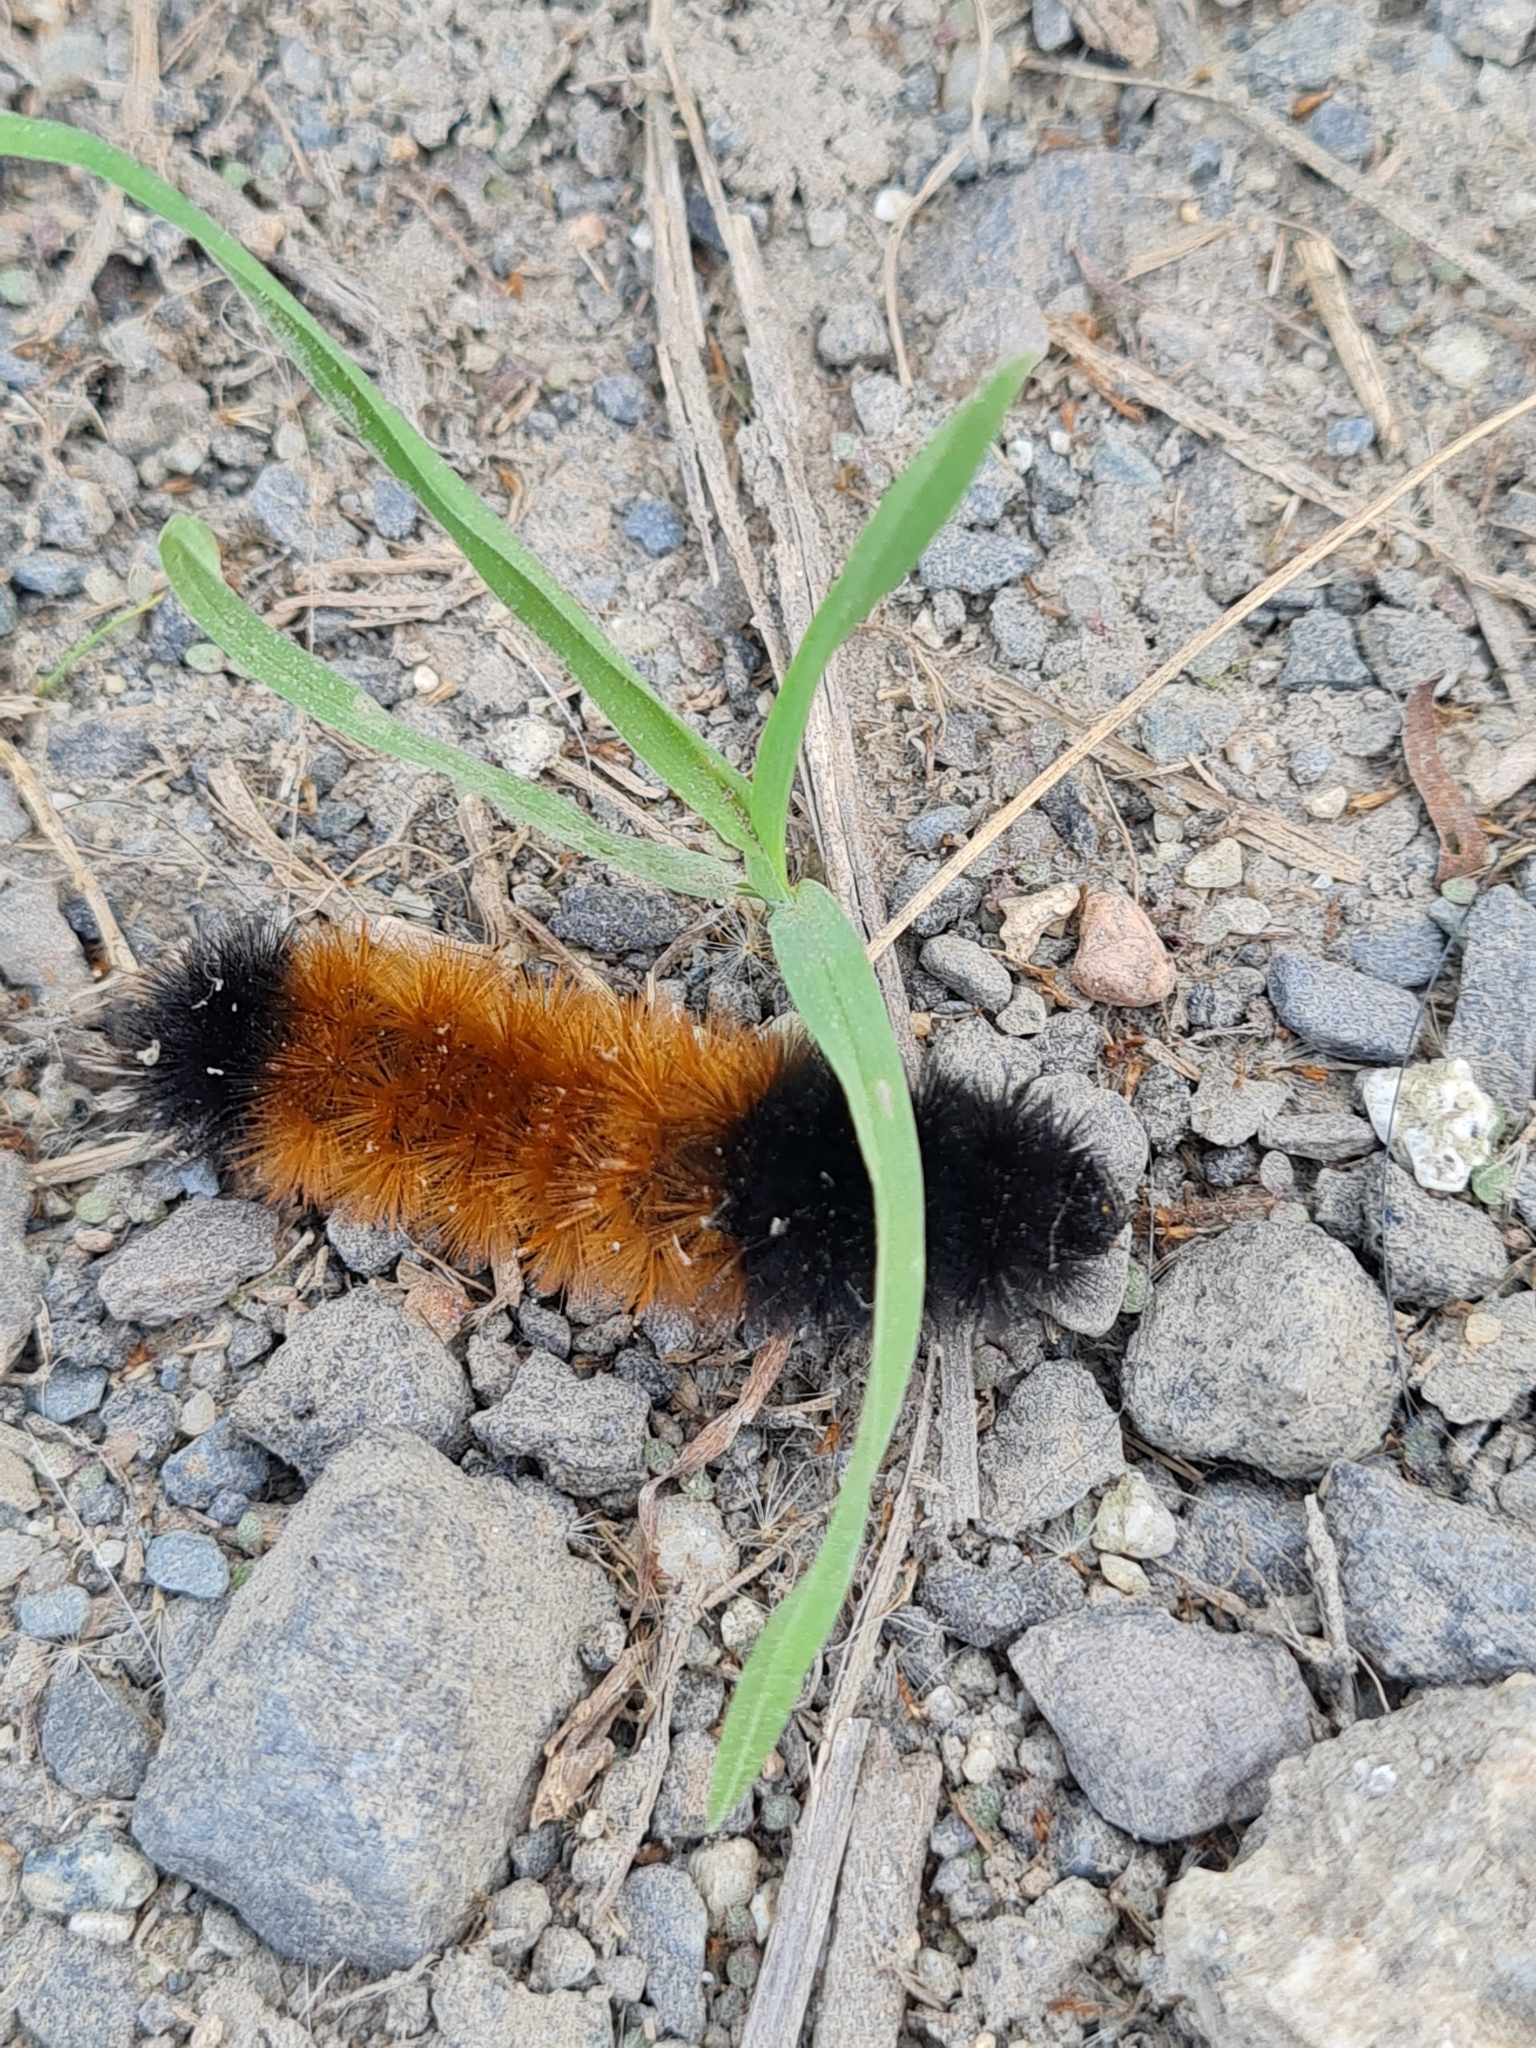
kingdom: Animalia
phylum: Arthropoda
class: Insecta
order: Lepidoptera
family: Erebidae
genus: Pyrrharctia
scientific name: Pyrrharctia isabella
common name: Isabella tiger moth
